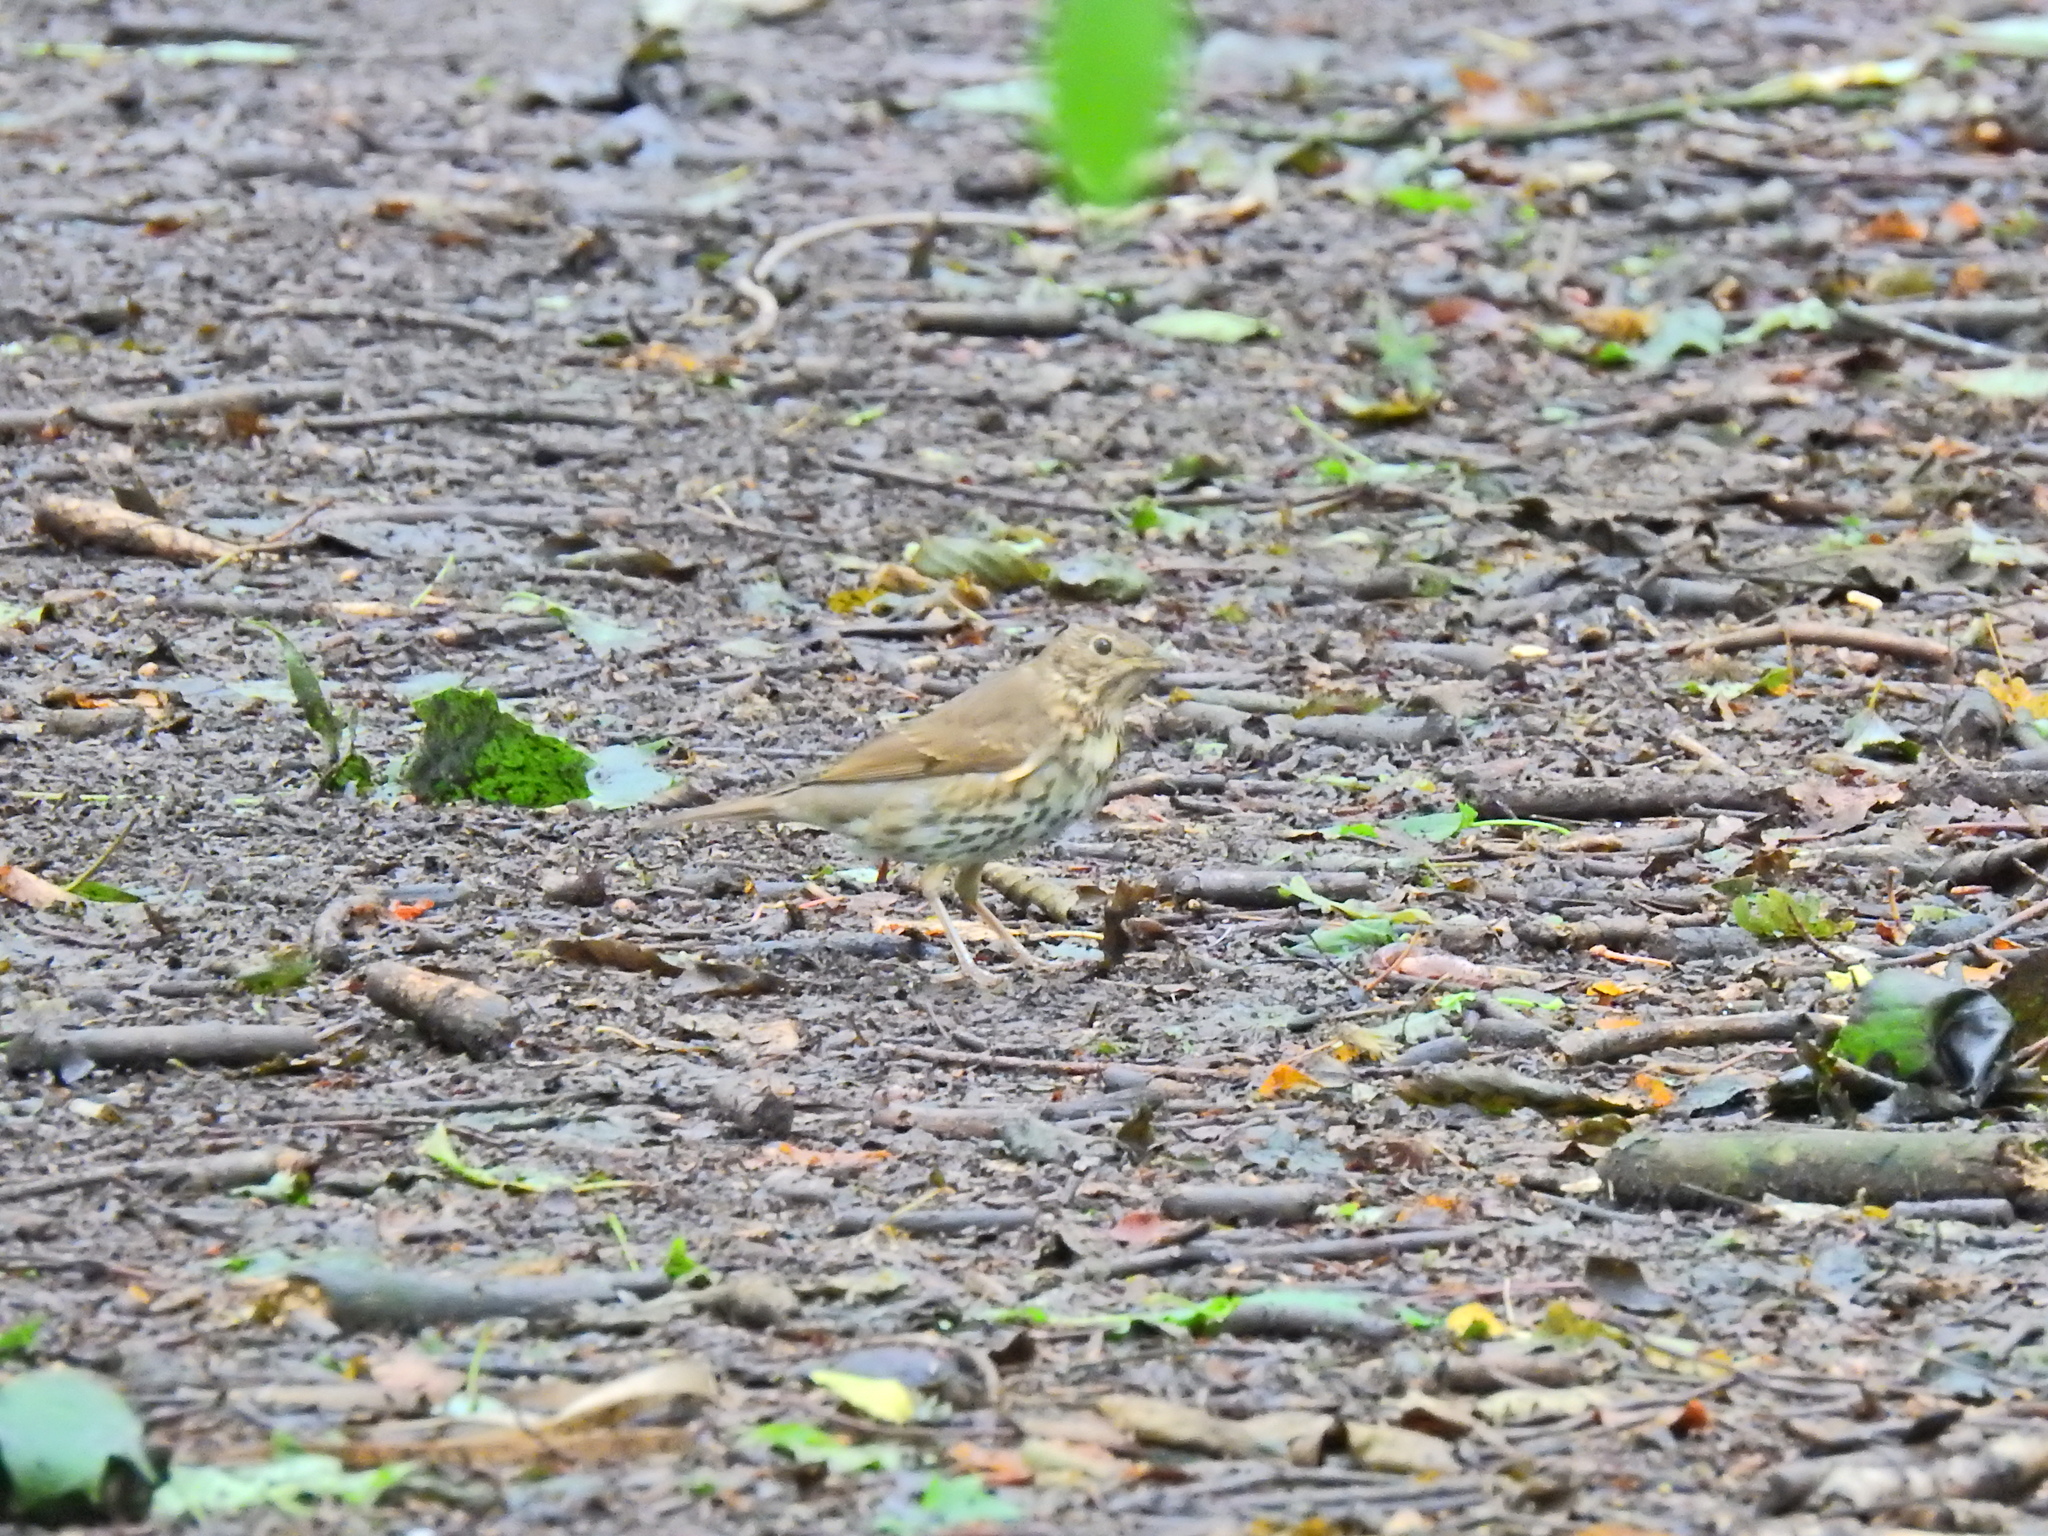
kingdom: Animalia
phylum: Chordata
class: Aves
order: Passeriformes
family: Turdidae
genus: Turdus
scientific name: Turdus philomelos
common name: Song thrush
